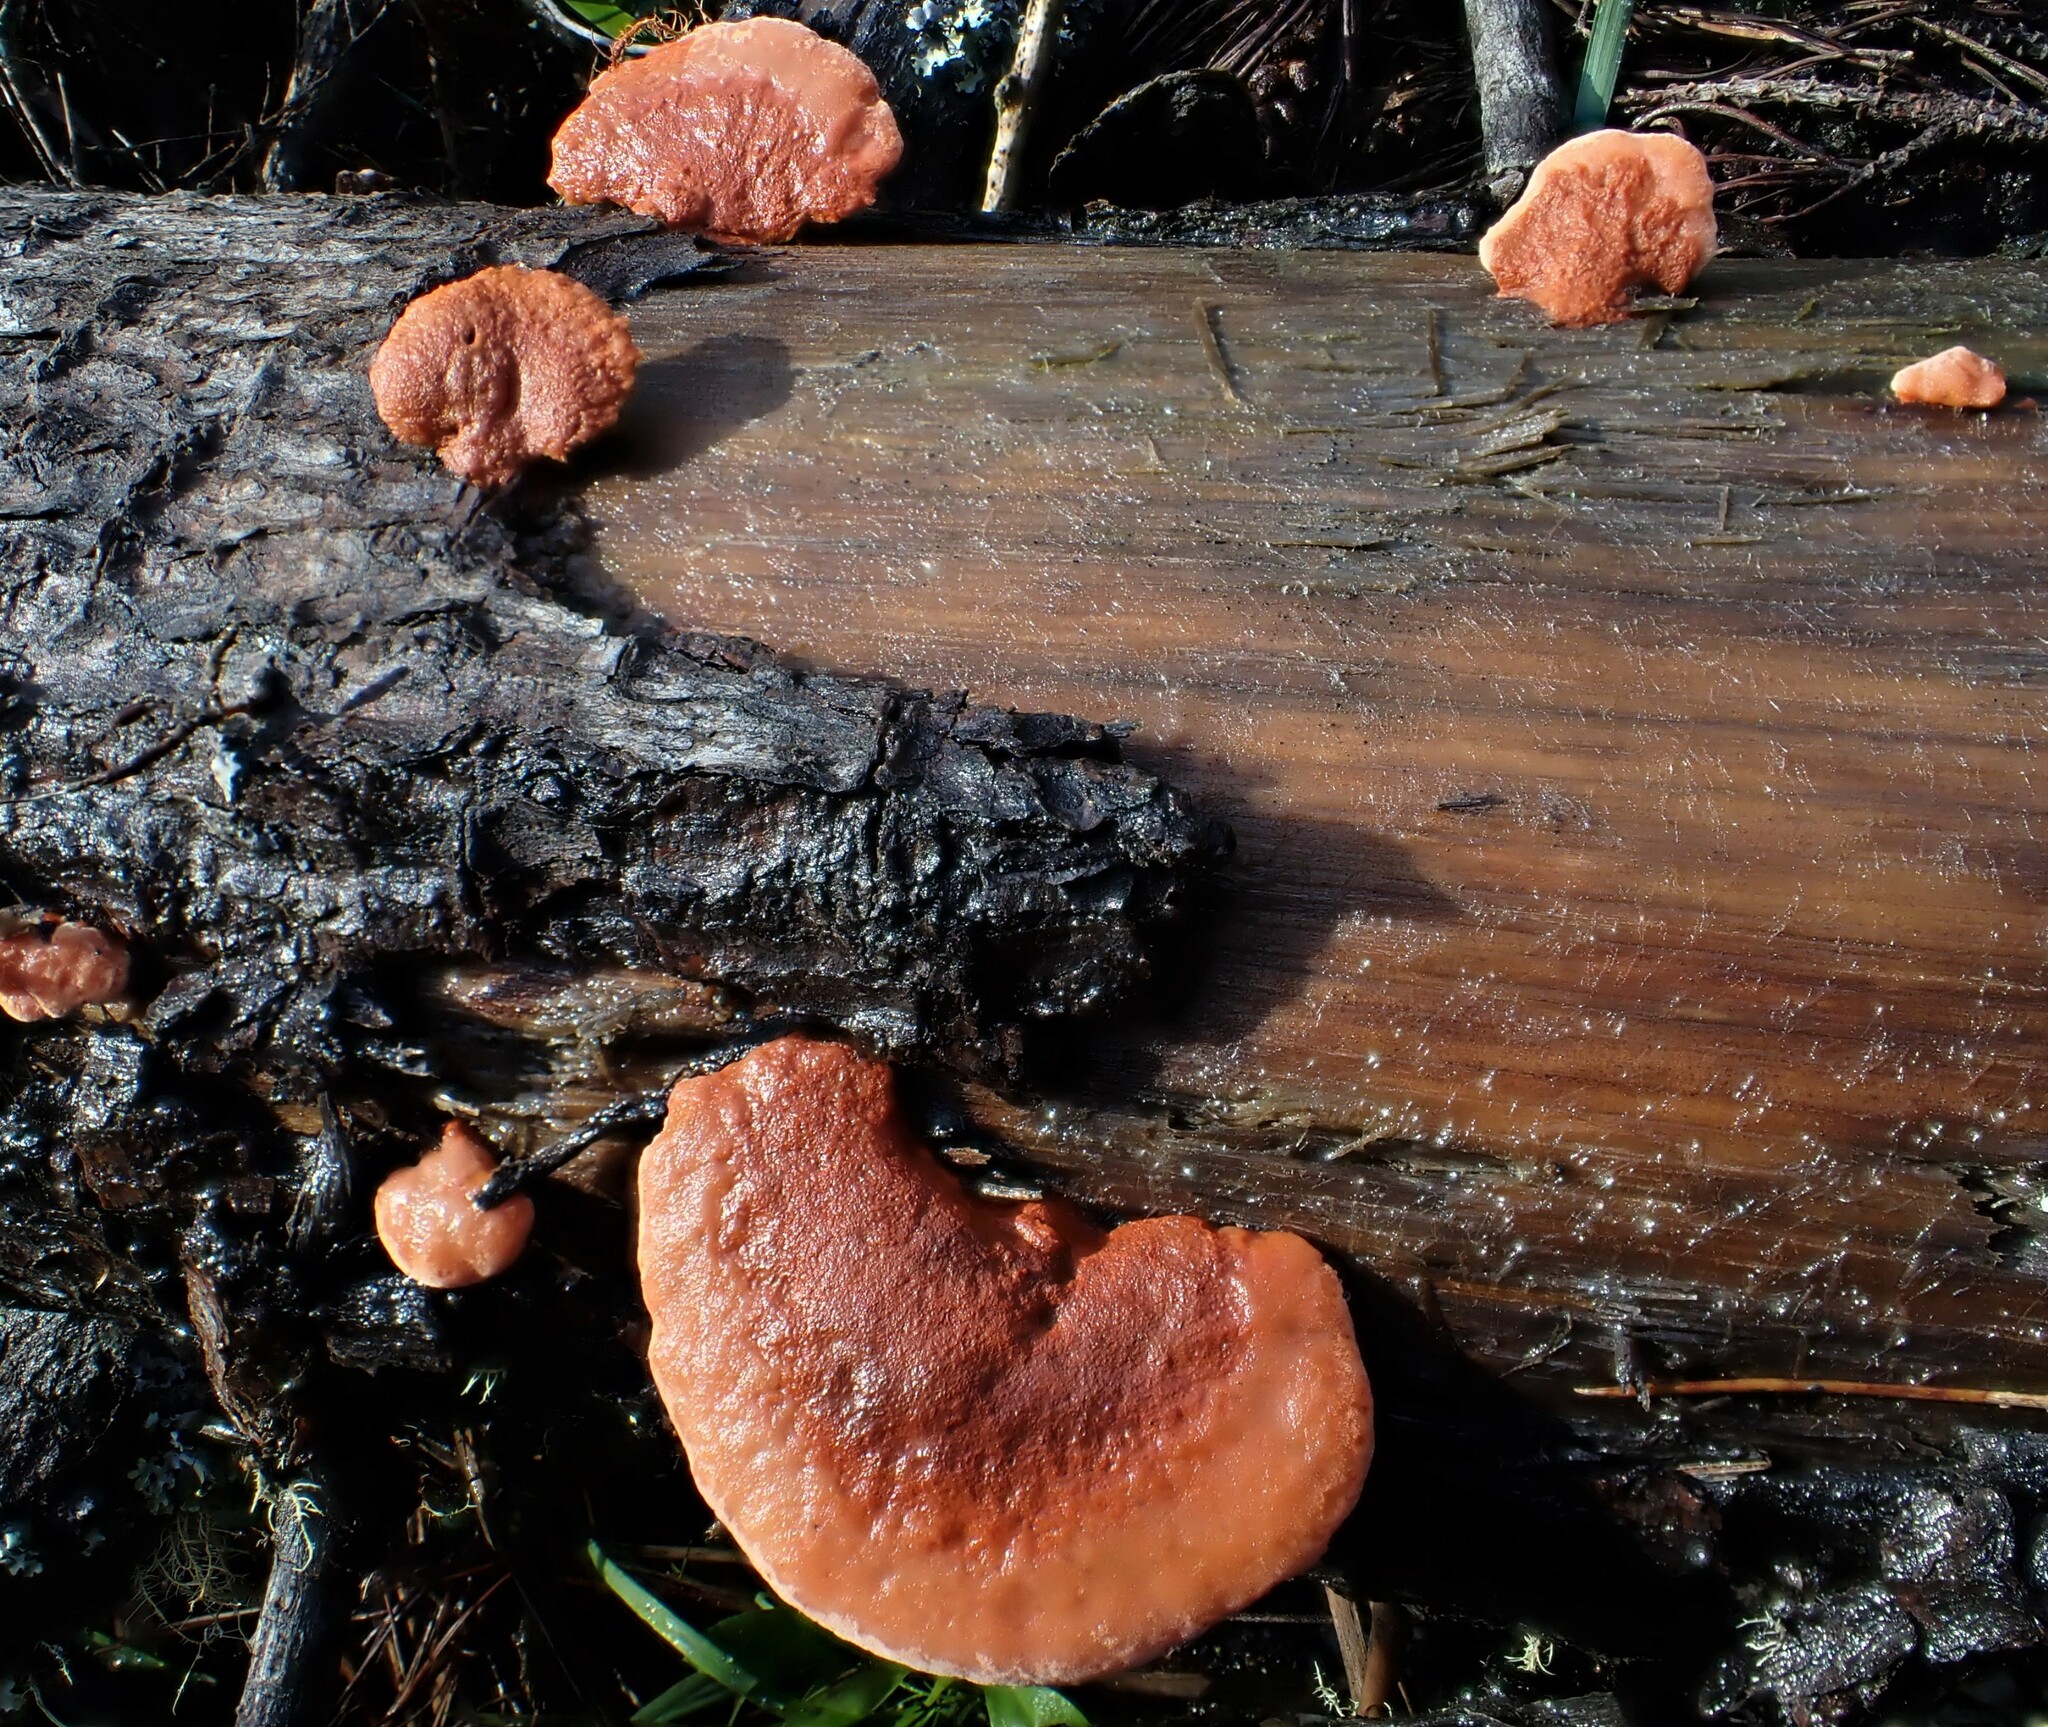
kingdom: Fungi
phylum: Basidiomycota
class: Agaricomycetes
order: Polyporales
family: Polyporaceae
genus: Trametes
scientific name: Trametes coccinea
